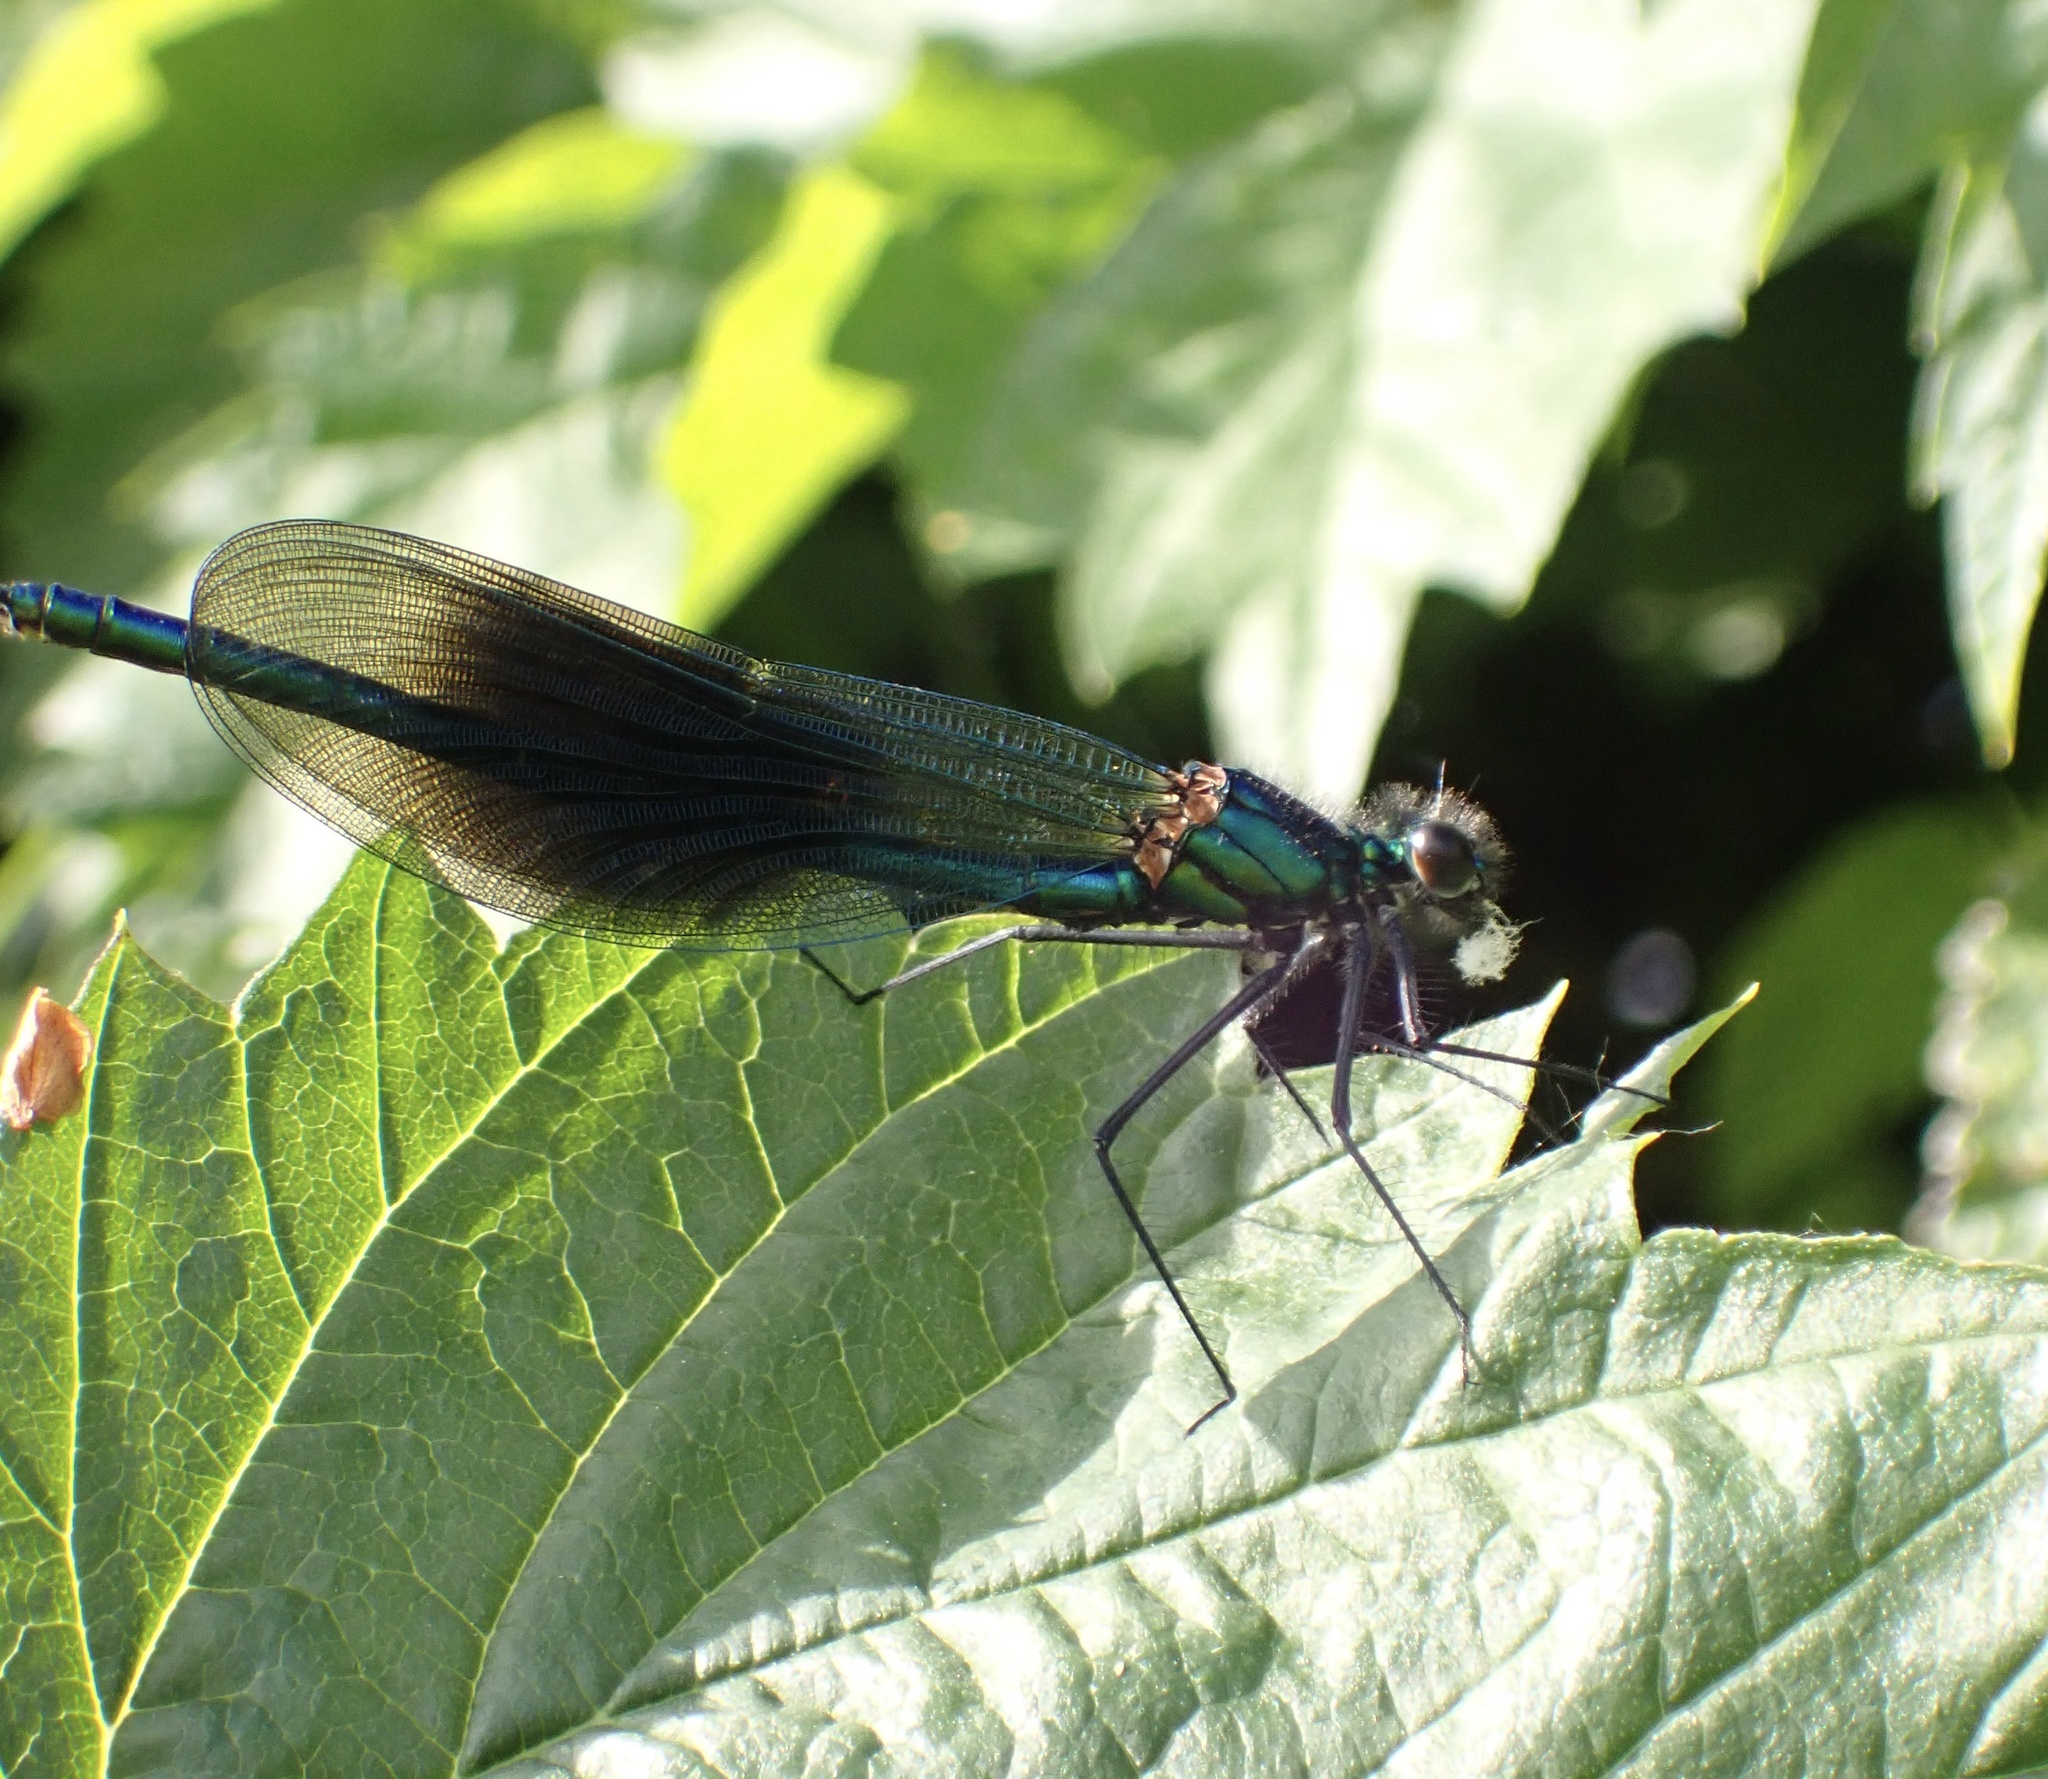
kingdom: Animalia
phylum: Arthropoda
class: Insecta
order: Odonata
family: Calopterygidae
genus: Calopteryx
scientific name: Calopteryx splendens
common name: Banded demoiselle
